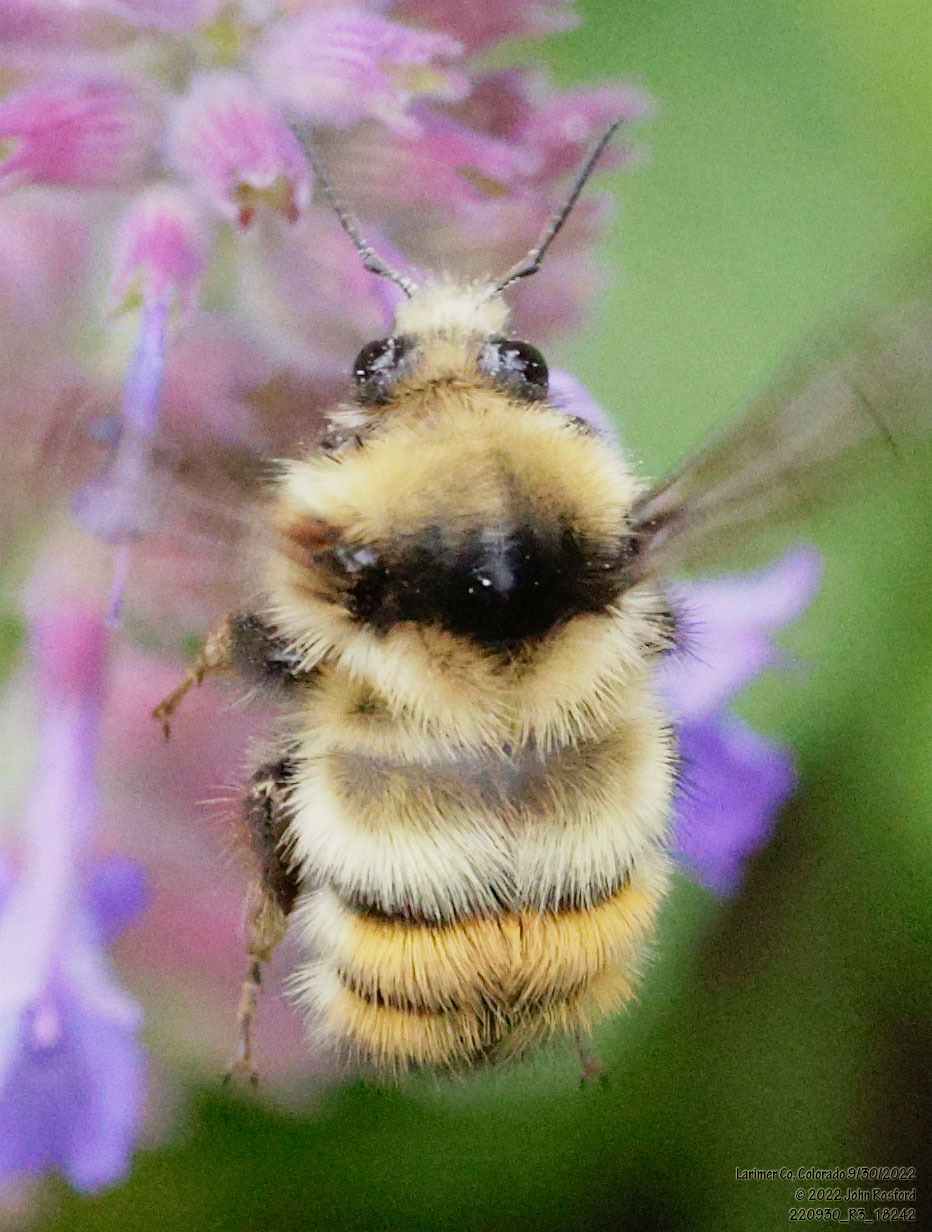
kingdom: Animalia
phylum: Arthropoda
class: Insecta
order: Hymenoptera
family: Apidae
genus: Bombus
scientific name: Bombus centralis
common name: Central bumble bee
